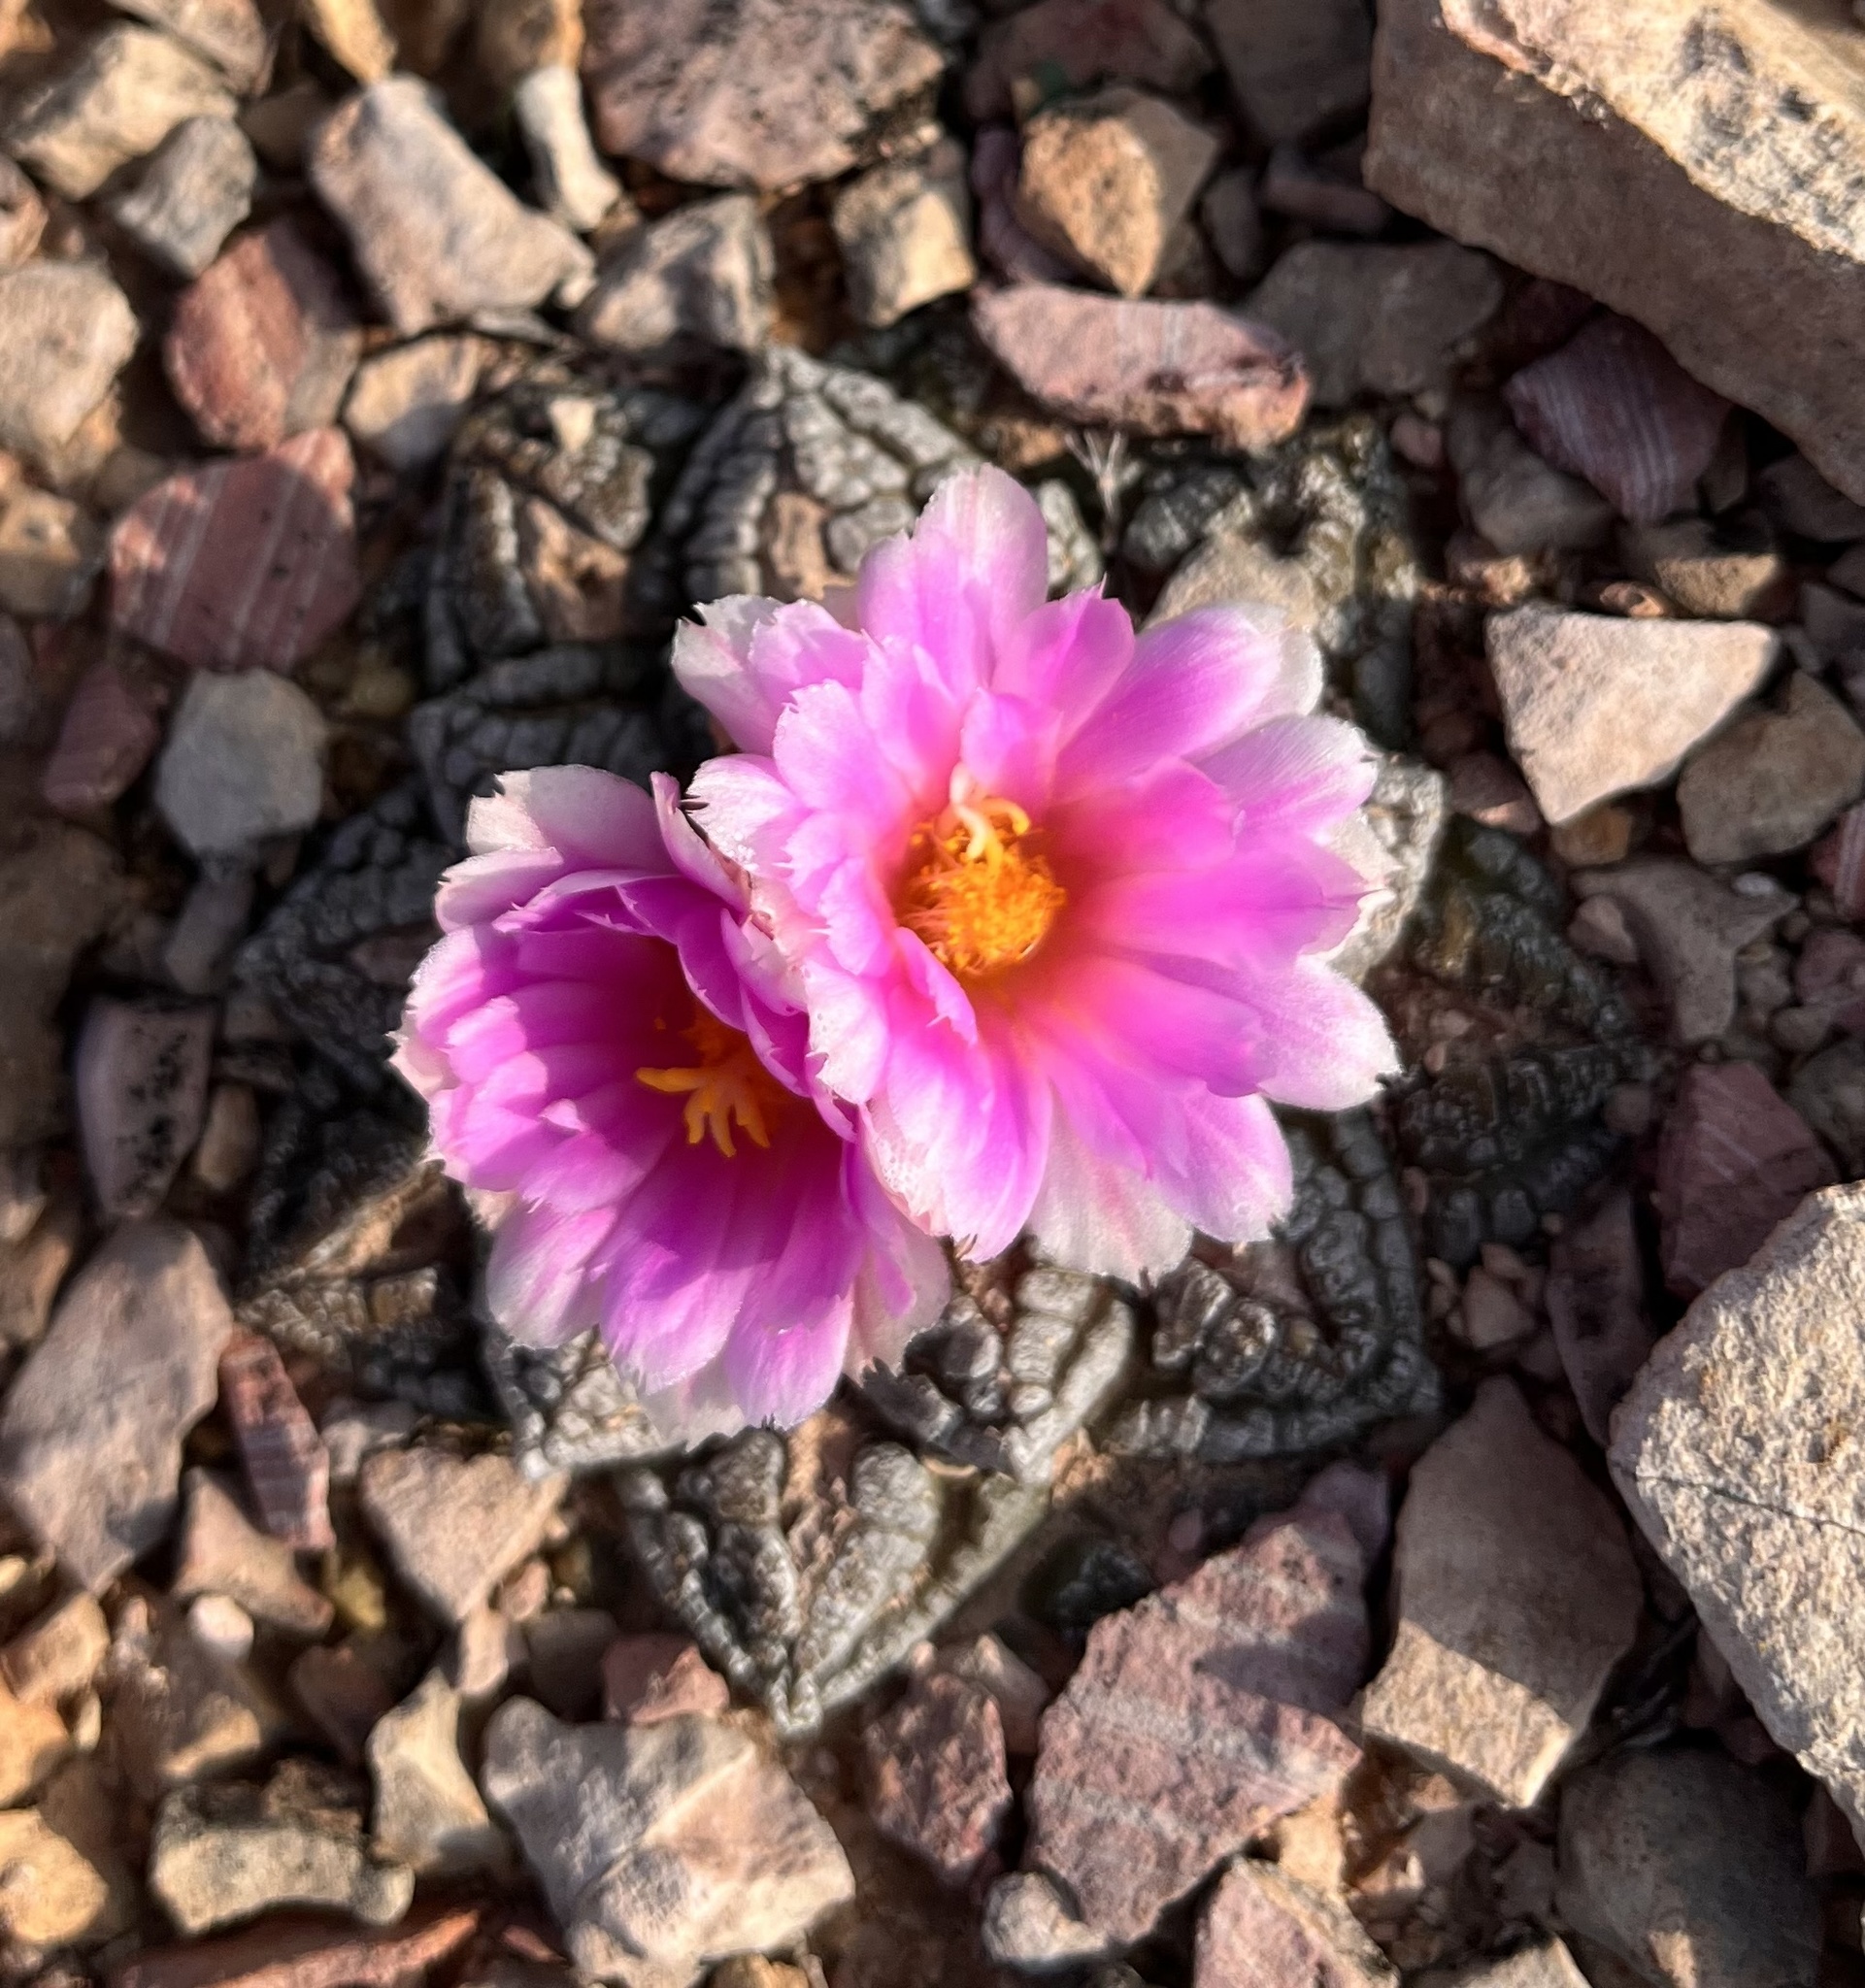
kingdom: Plantae
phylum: Tracheophyta
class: Magnoliopsida
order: Caryophyllales
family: Cactaceae
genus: Ariocarpus
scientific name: Ariocarpus fissuratus
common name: Chautle-living rock
